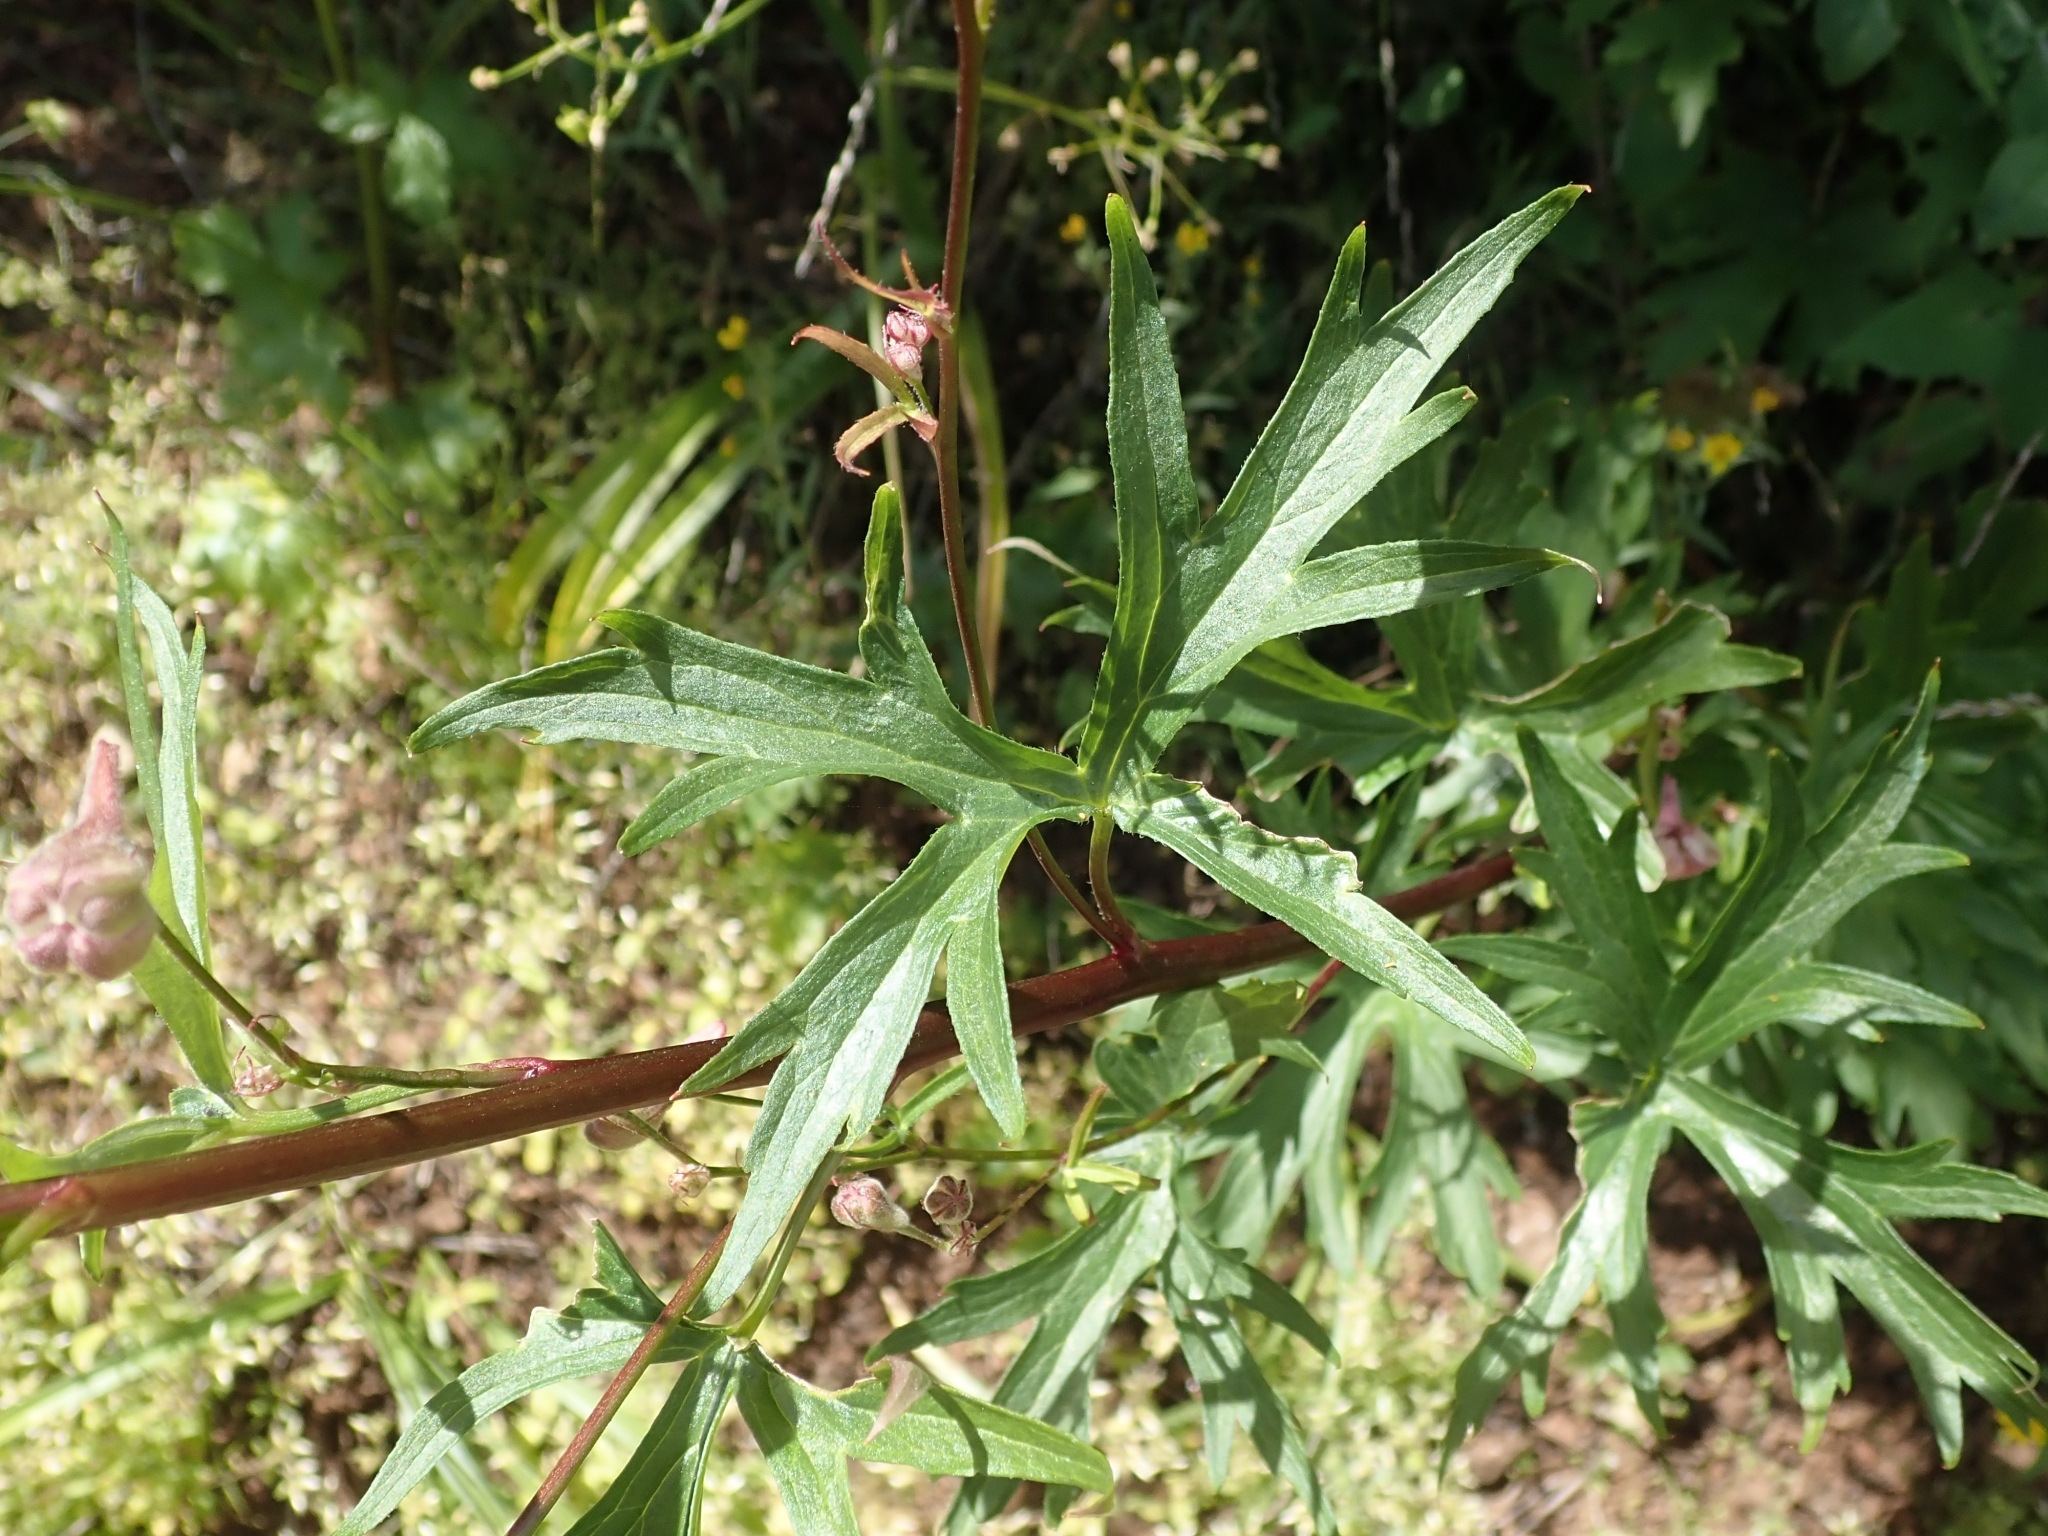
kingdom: Plantae
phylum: Tracheophyta
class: Magnoliopsida
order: Ranunculales
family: Ranunculaceae
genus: Delphinium
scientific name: Delphinium californicum
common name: California larkspur
